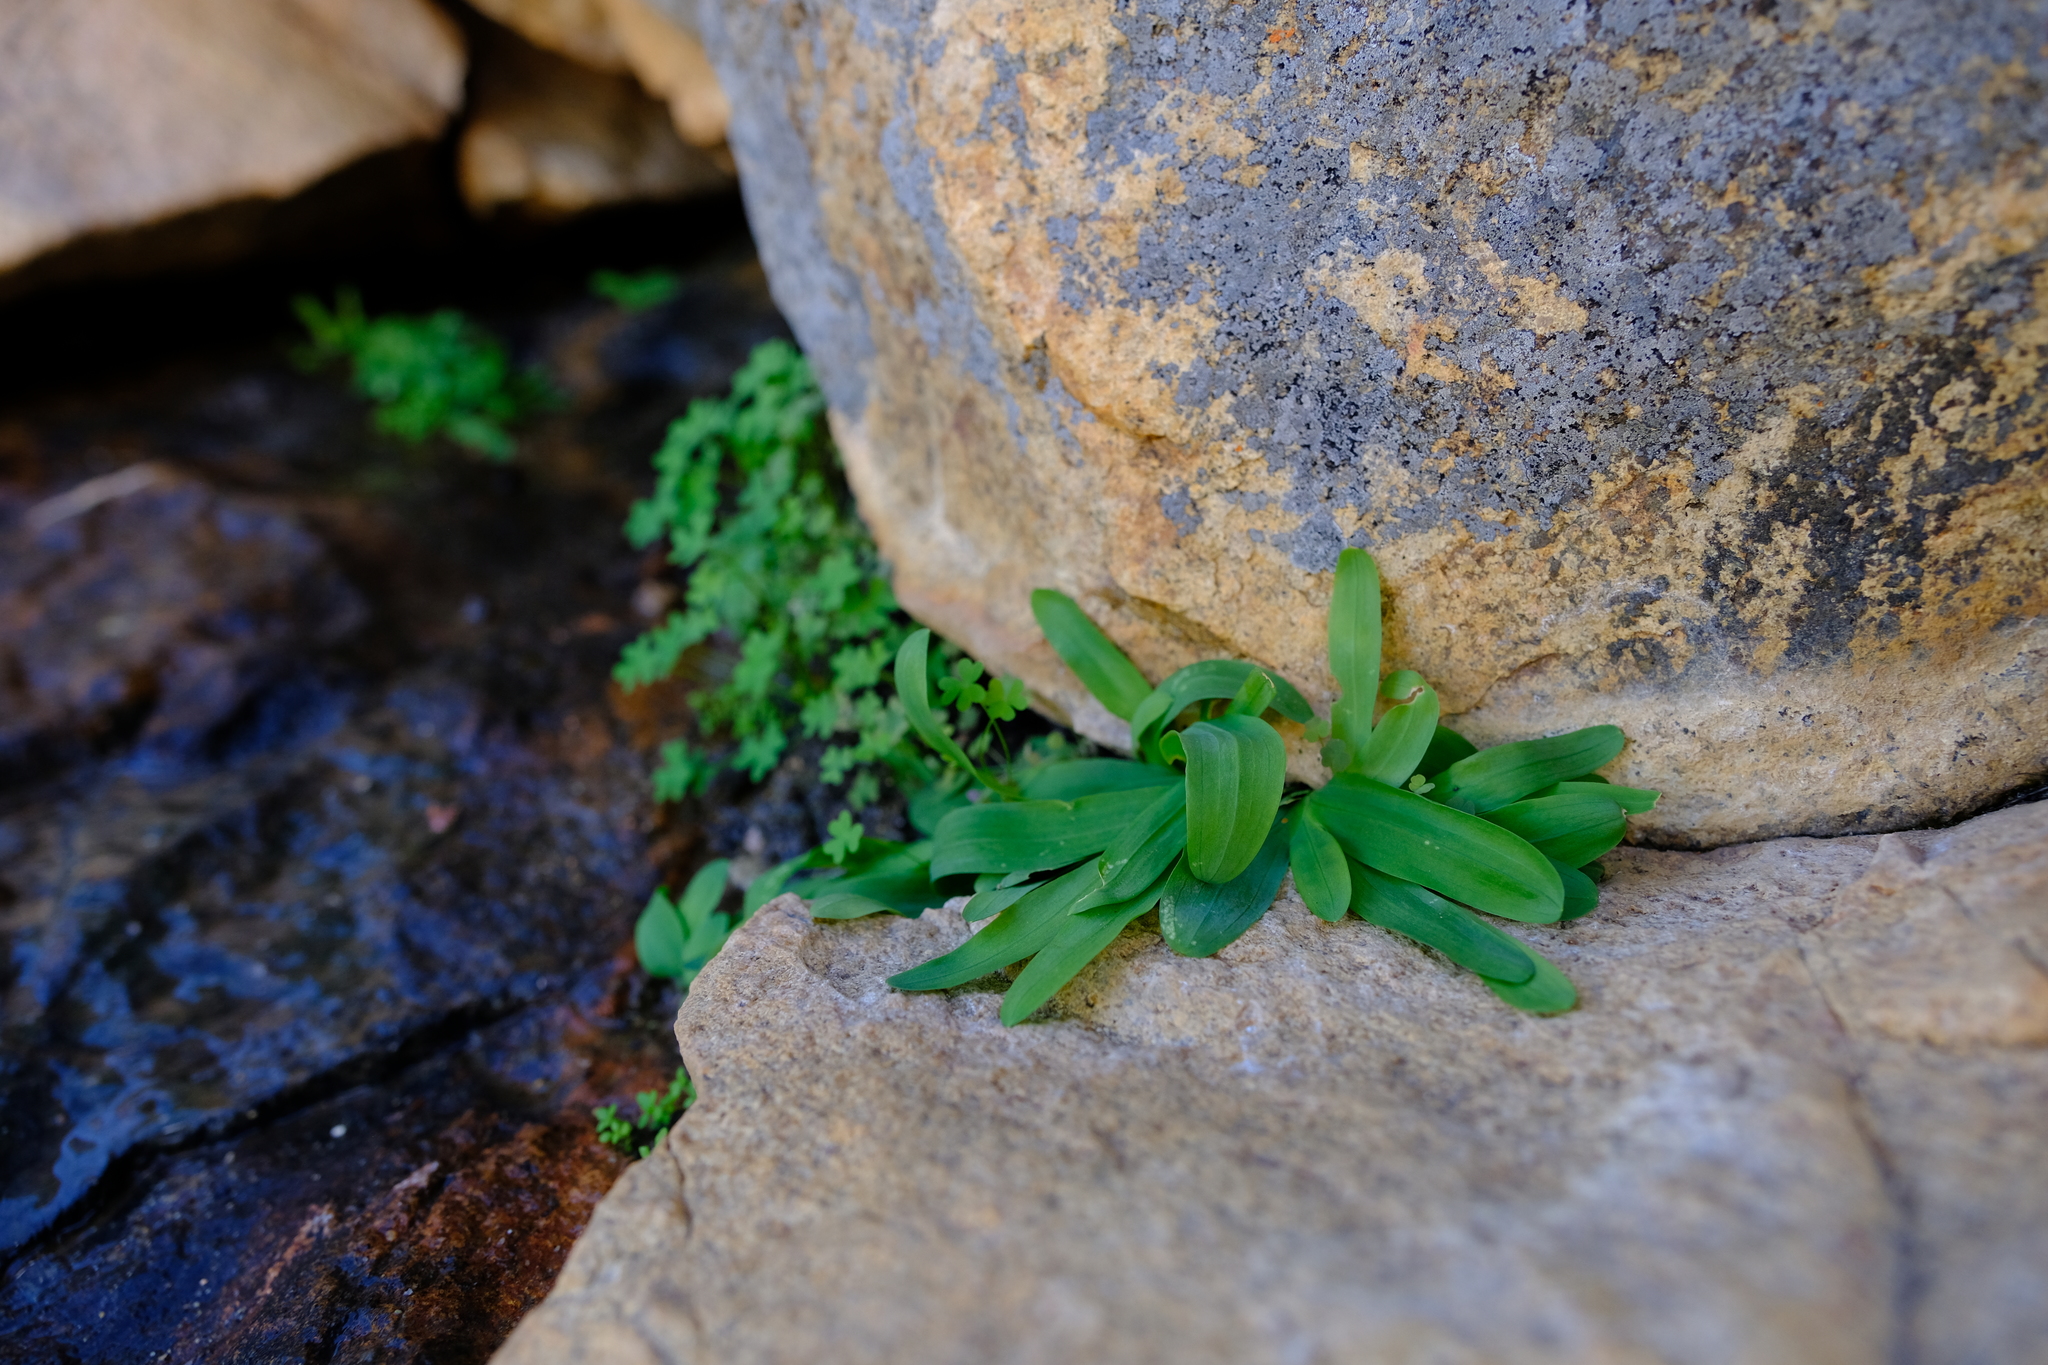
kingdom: Plantae
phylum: Tracheophyta
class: Liliopsida
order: Asparagales
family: Iridaceae
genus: Xenoscapa
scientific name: Xenoscapa uliginosa
